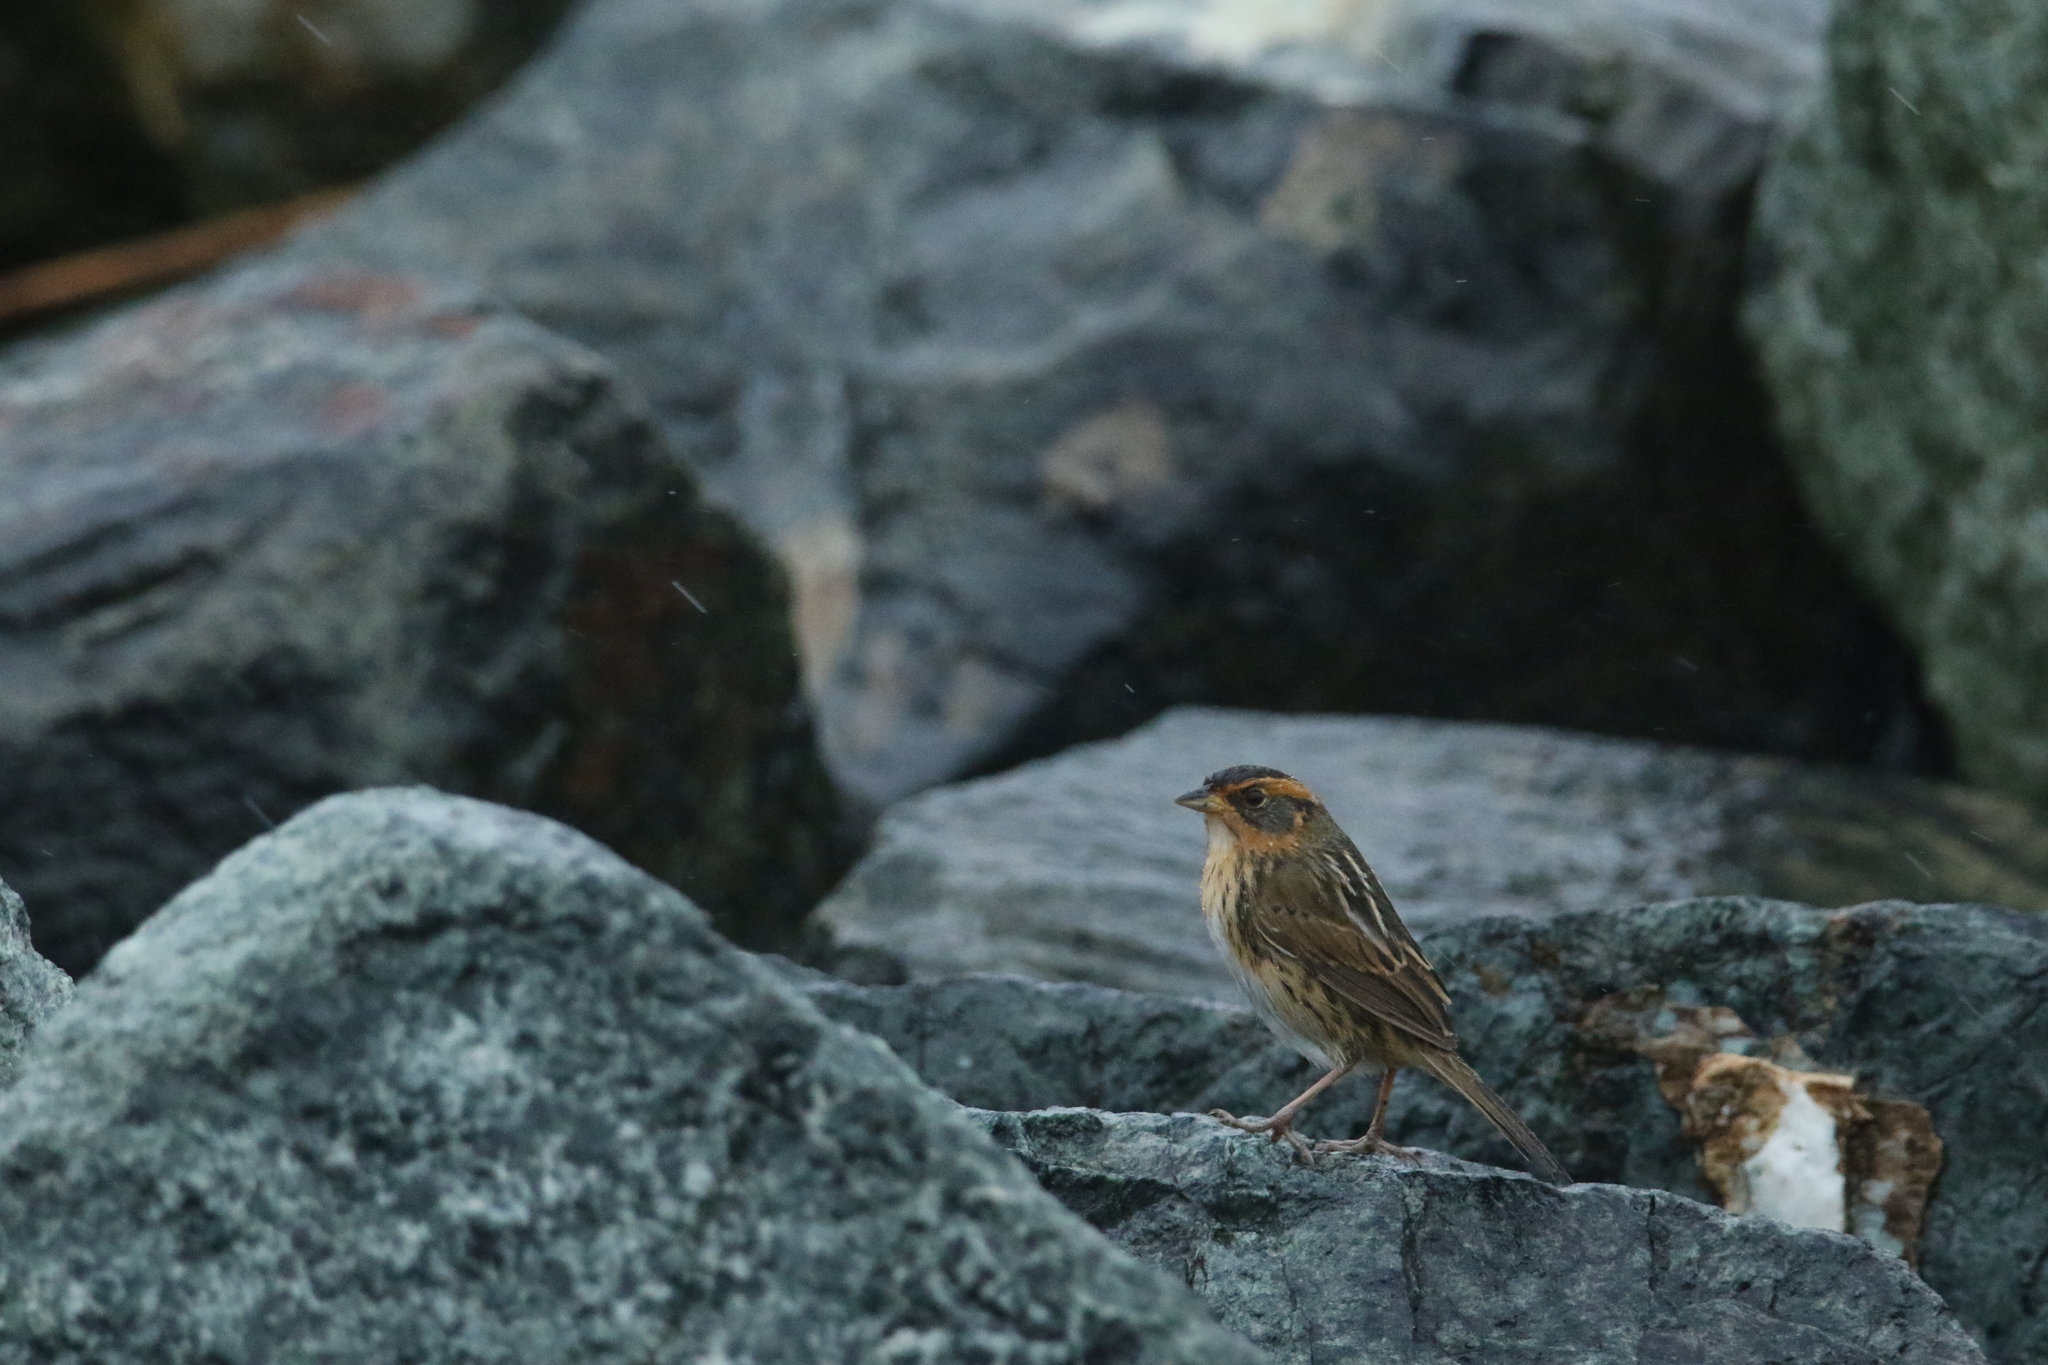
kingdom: Animalia
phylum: Chordata
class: Aves
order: Passeriformes
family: Passerellidae
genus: Ammospiza
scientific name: Ammospiza caudacuta
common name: Saltmarsh sparrow
